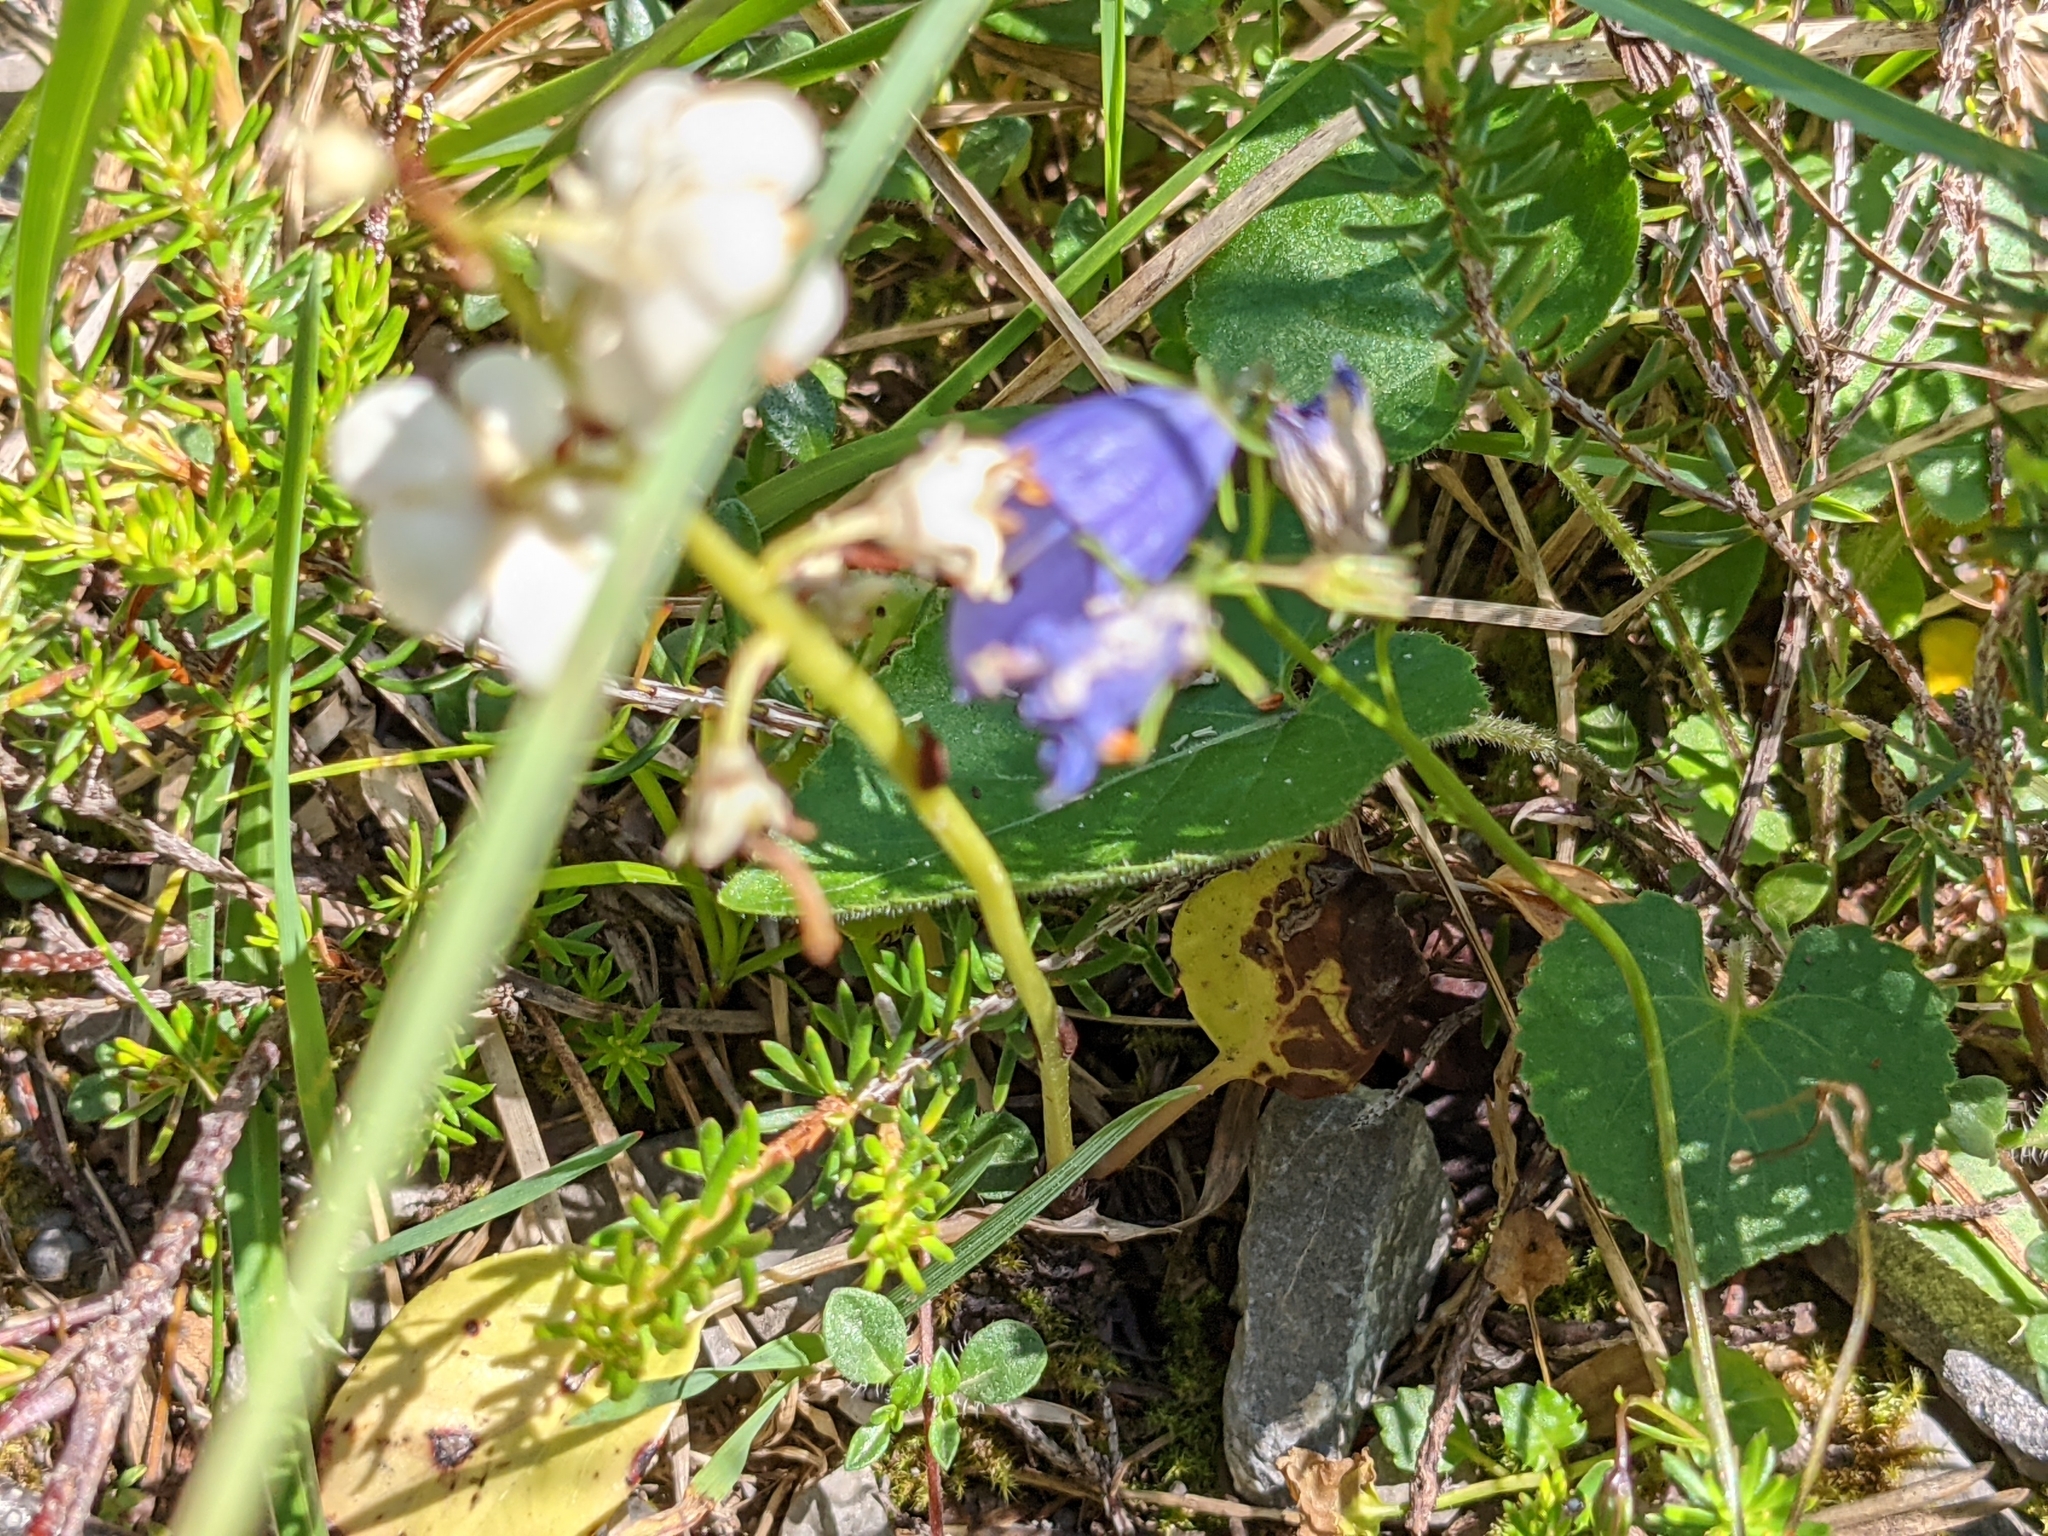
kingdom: Plantae
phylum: Tracheophyta
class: Magnoliopsida
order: Ericales
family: Ericaceae
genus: Pyrola
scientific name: Pyrola rotundifolia
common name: Round-leaved wintergreen
